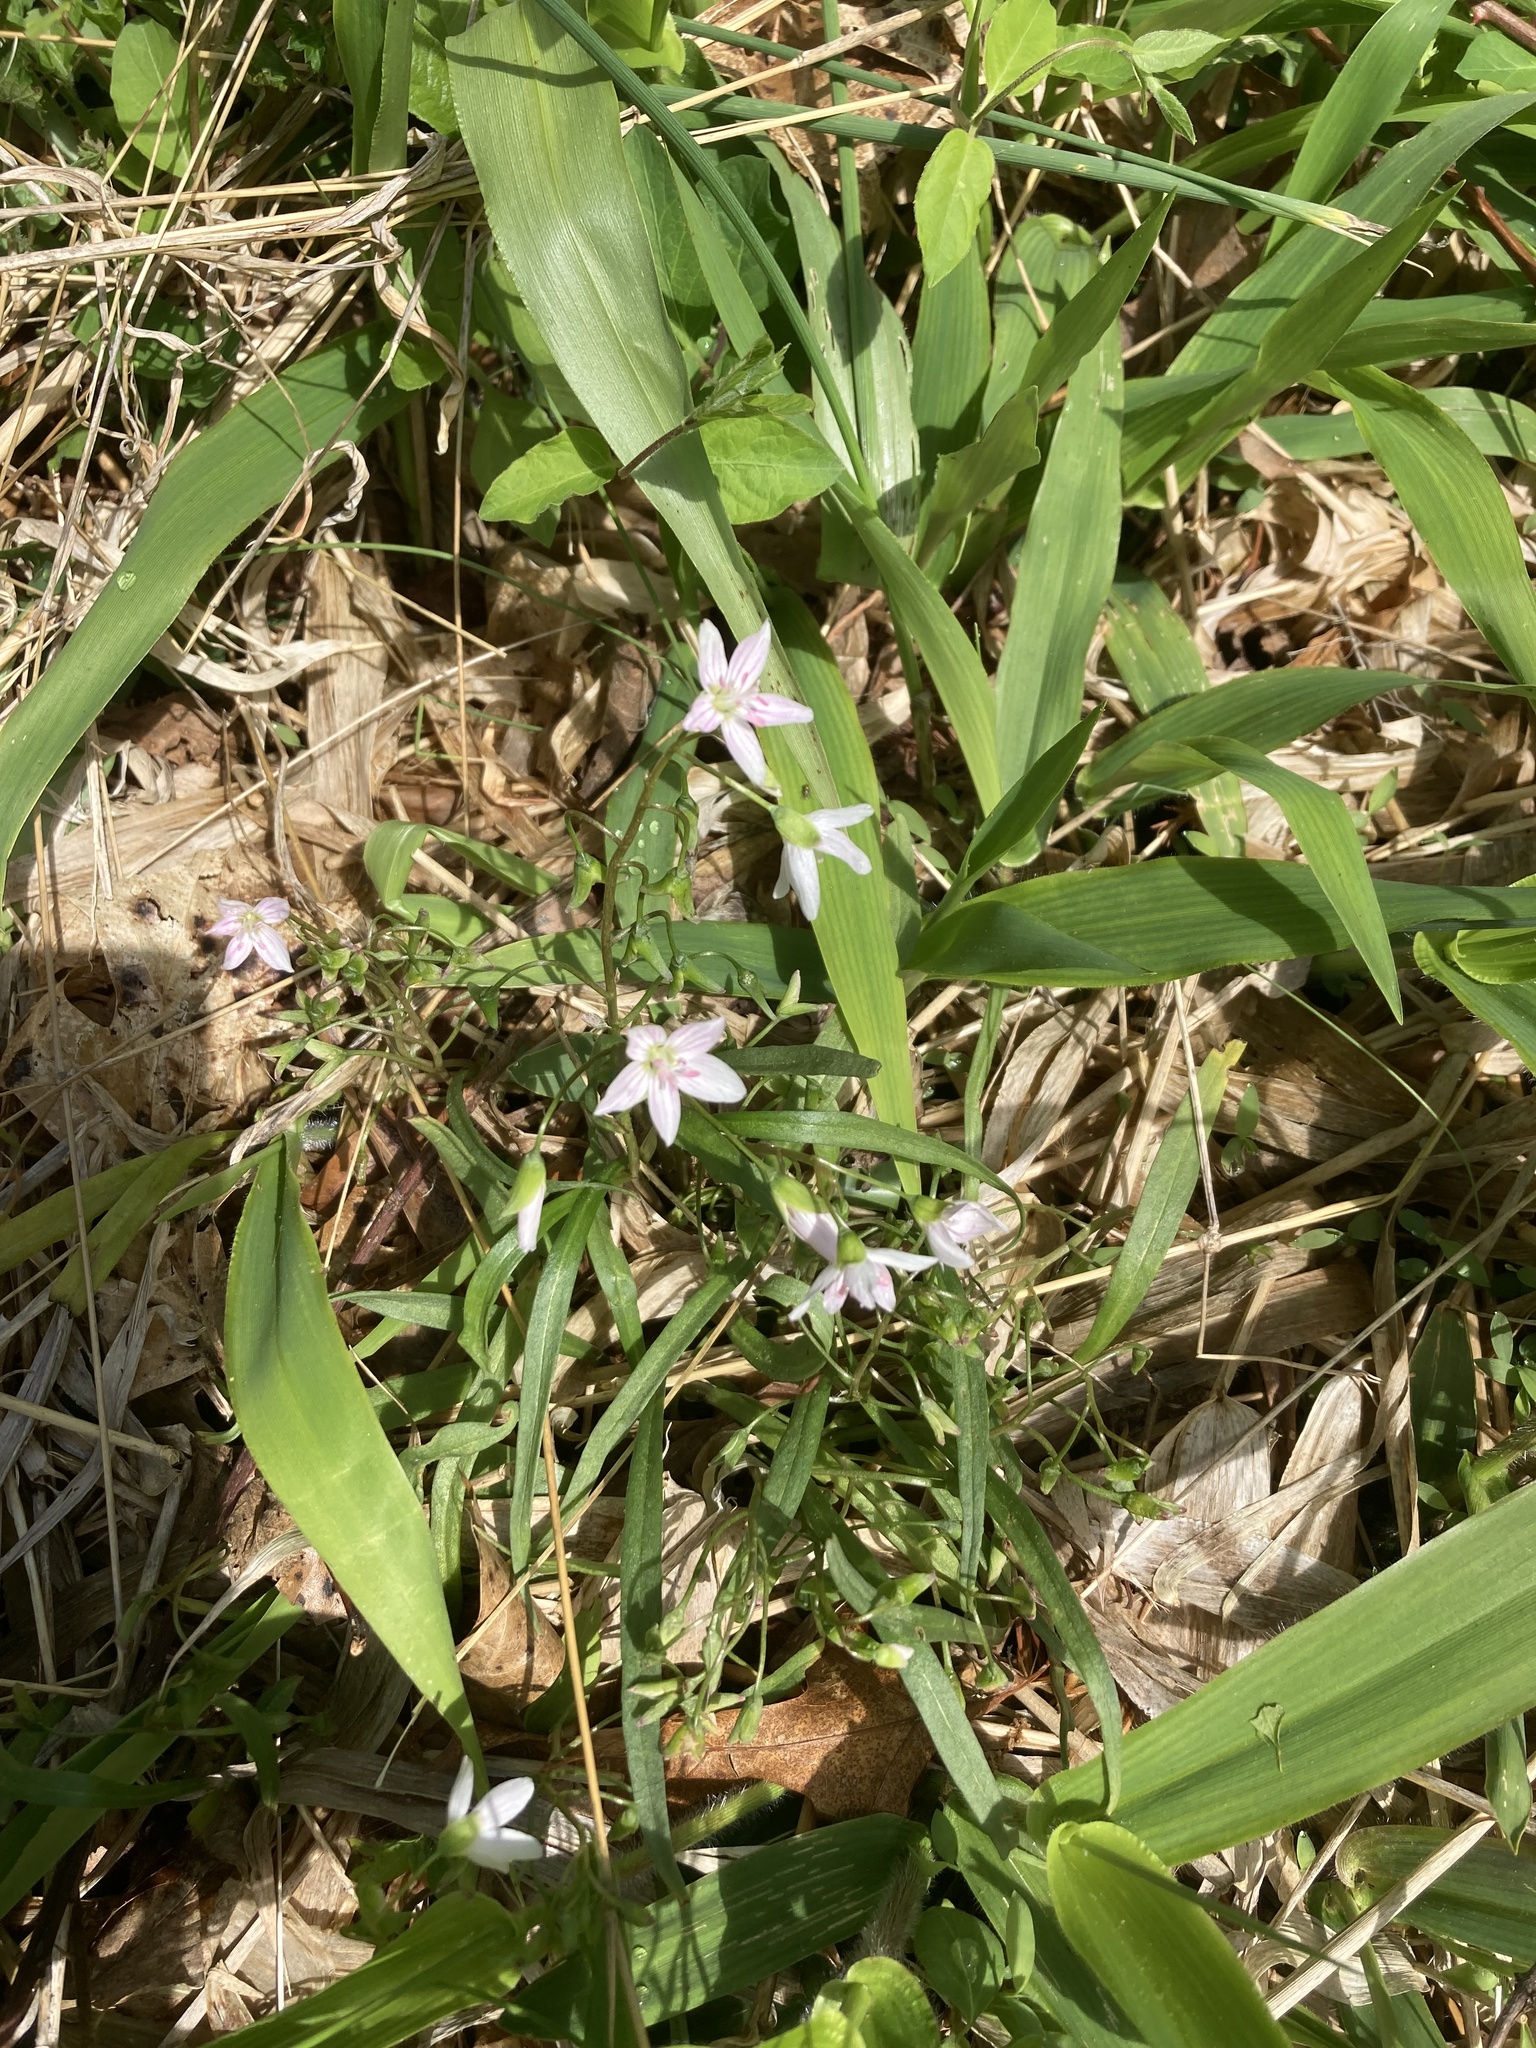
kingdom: Plantae
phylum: Tracheophyta
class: Magnoliopsida
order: Caryophyllales
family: Montiaceae
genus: Claytonia
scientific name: Claytonia virginica
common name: Virginia springbeauty
